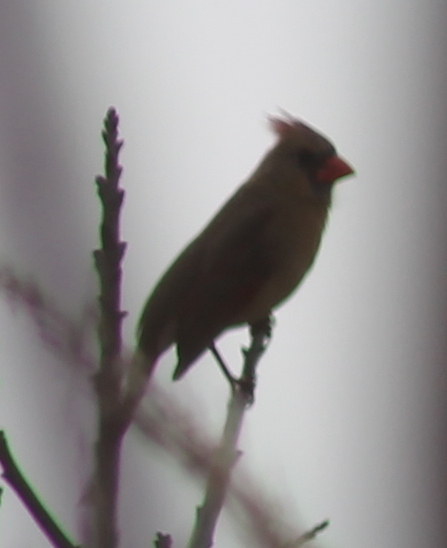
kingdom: Animalia
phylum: Chordata
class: Aves
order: Passeriformes
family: Cardinalidae
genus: Cardinalis
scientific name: Cardinalis cardinalis
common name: Northern cardinal
